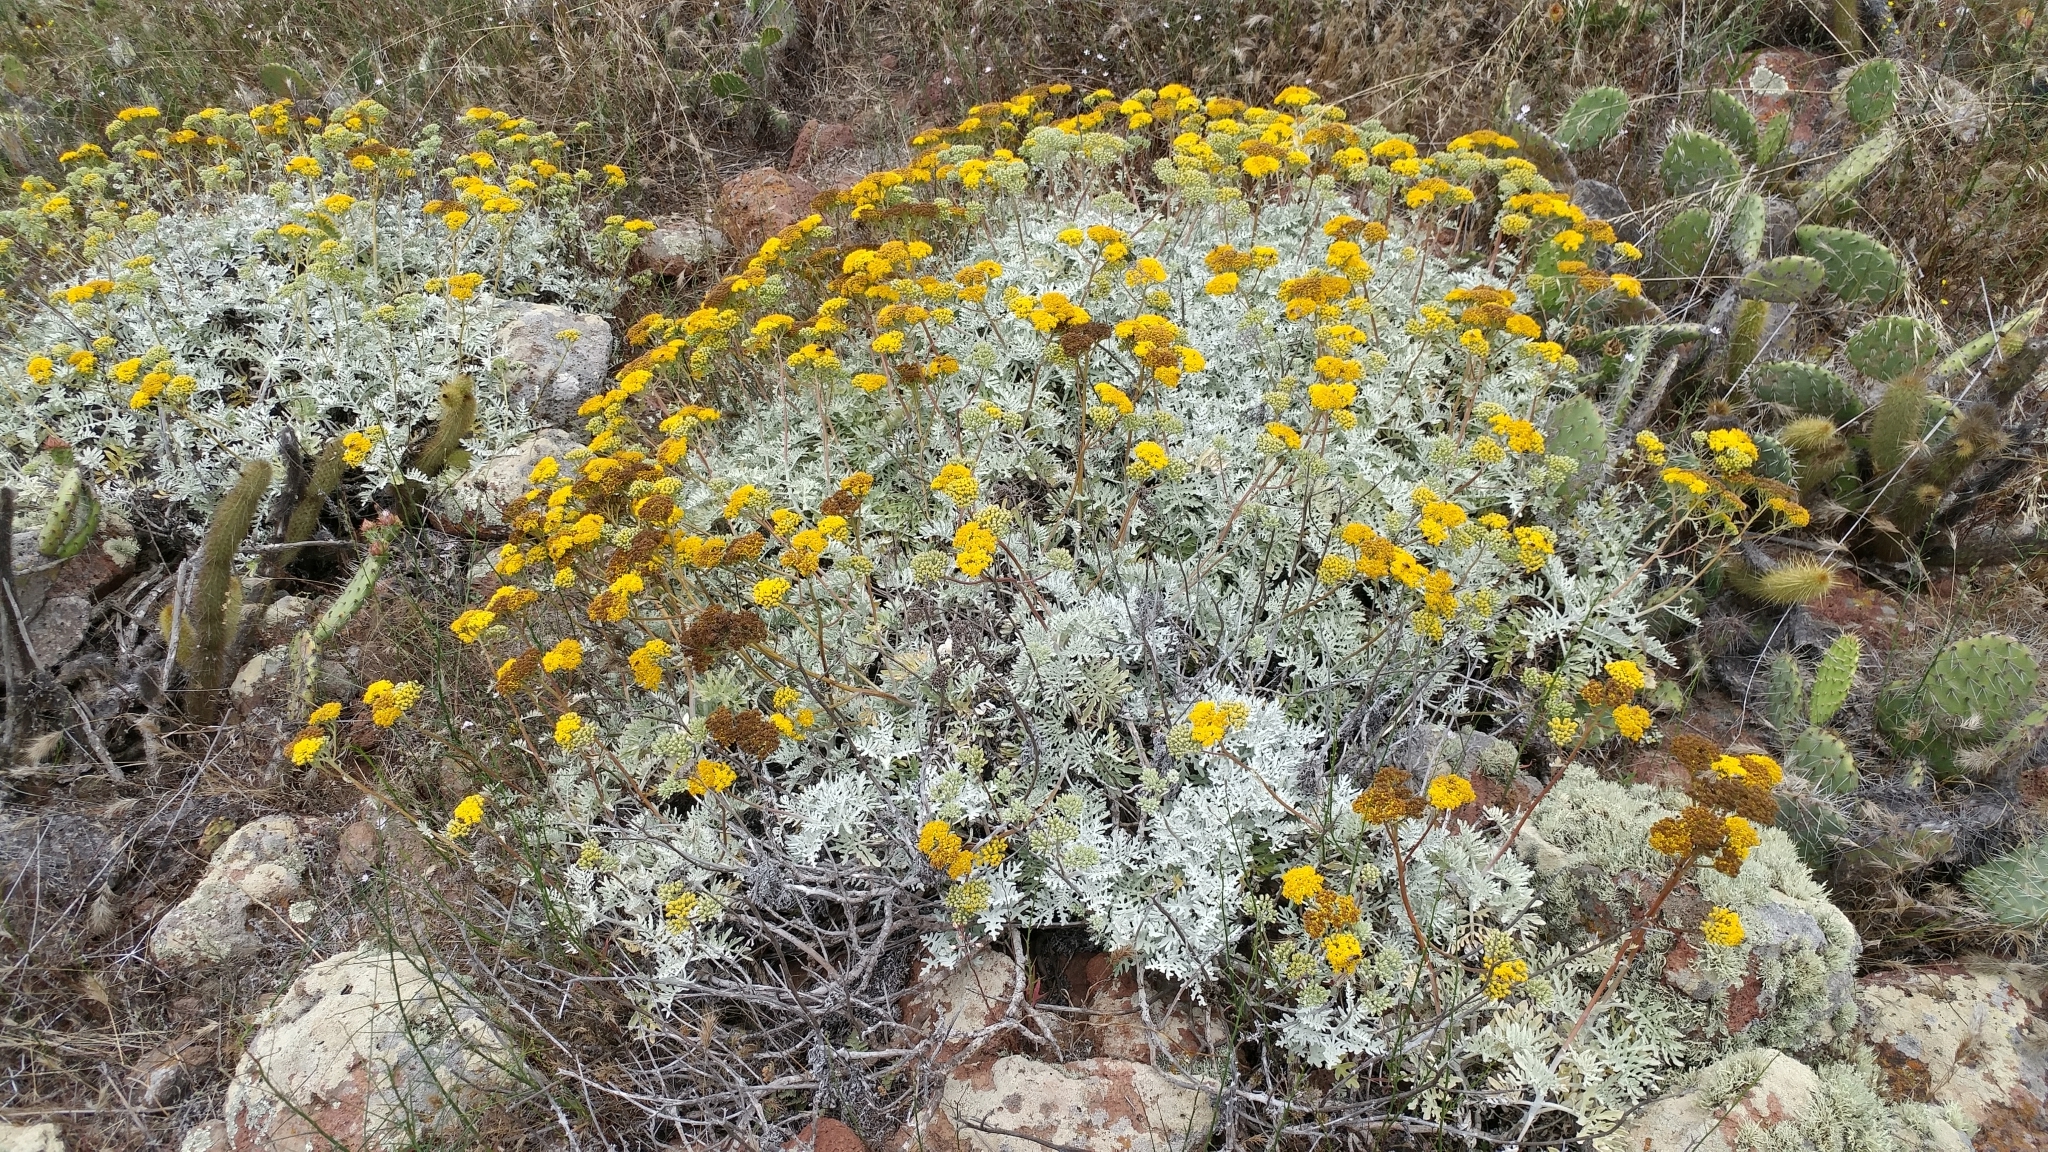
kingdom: Plantae
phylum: Tracheophyta
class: Magnoliopsida
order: Asterales
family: Asteraceae
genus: Constancea
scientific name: Constancea nevinii
